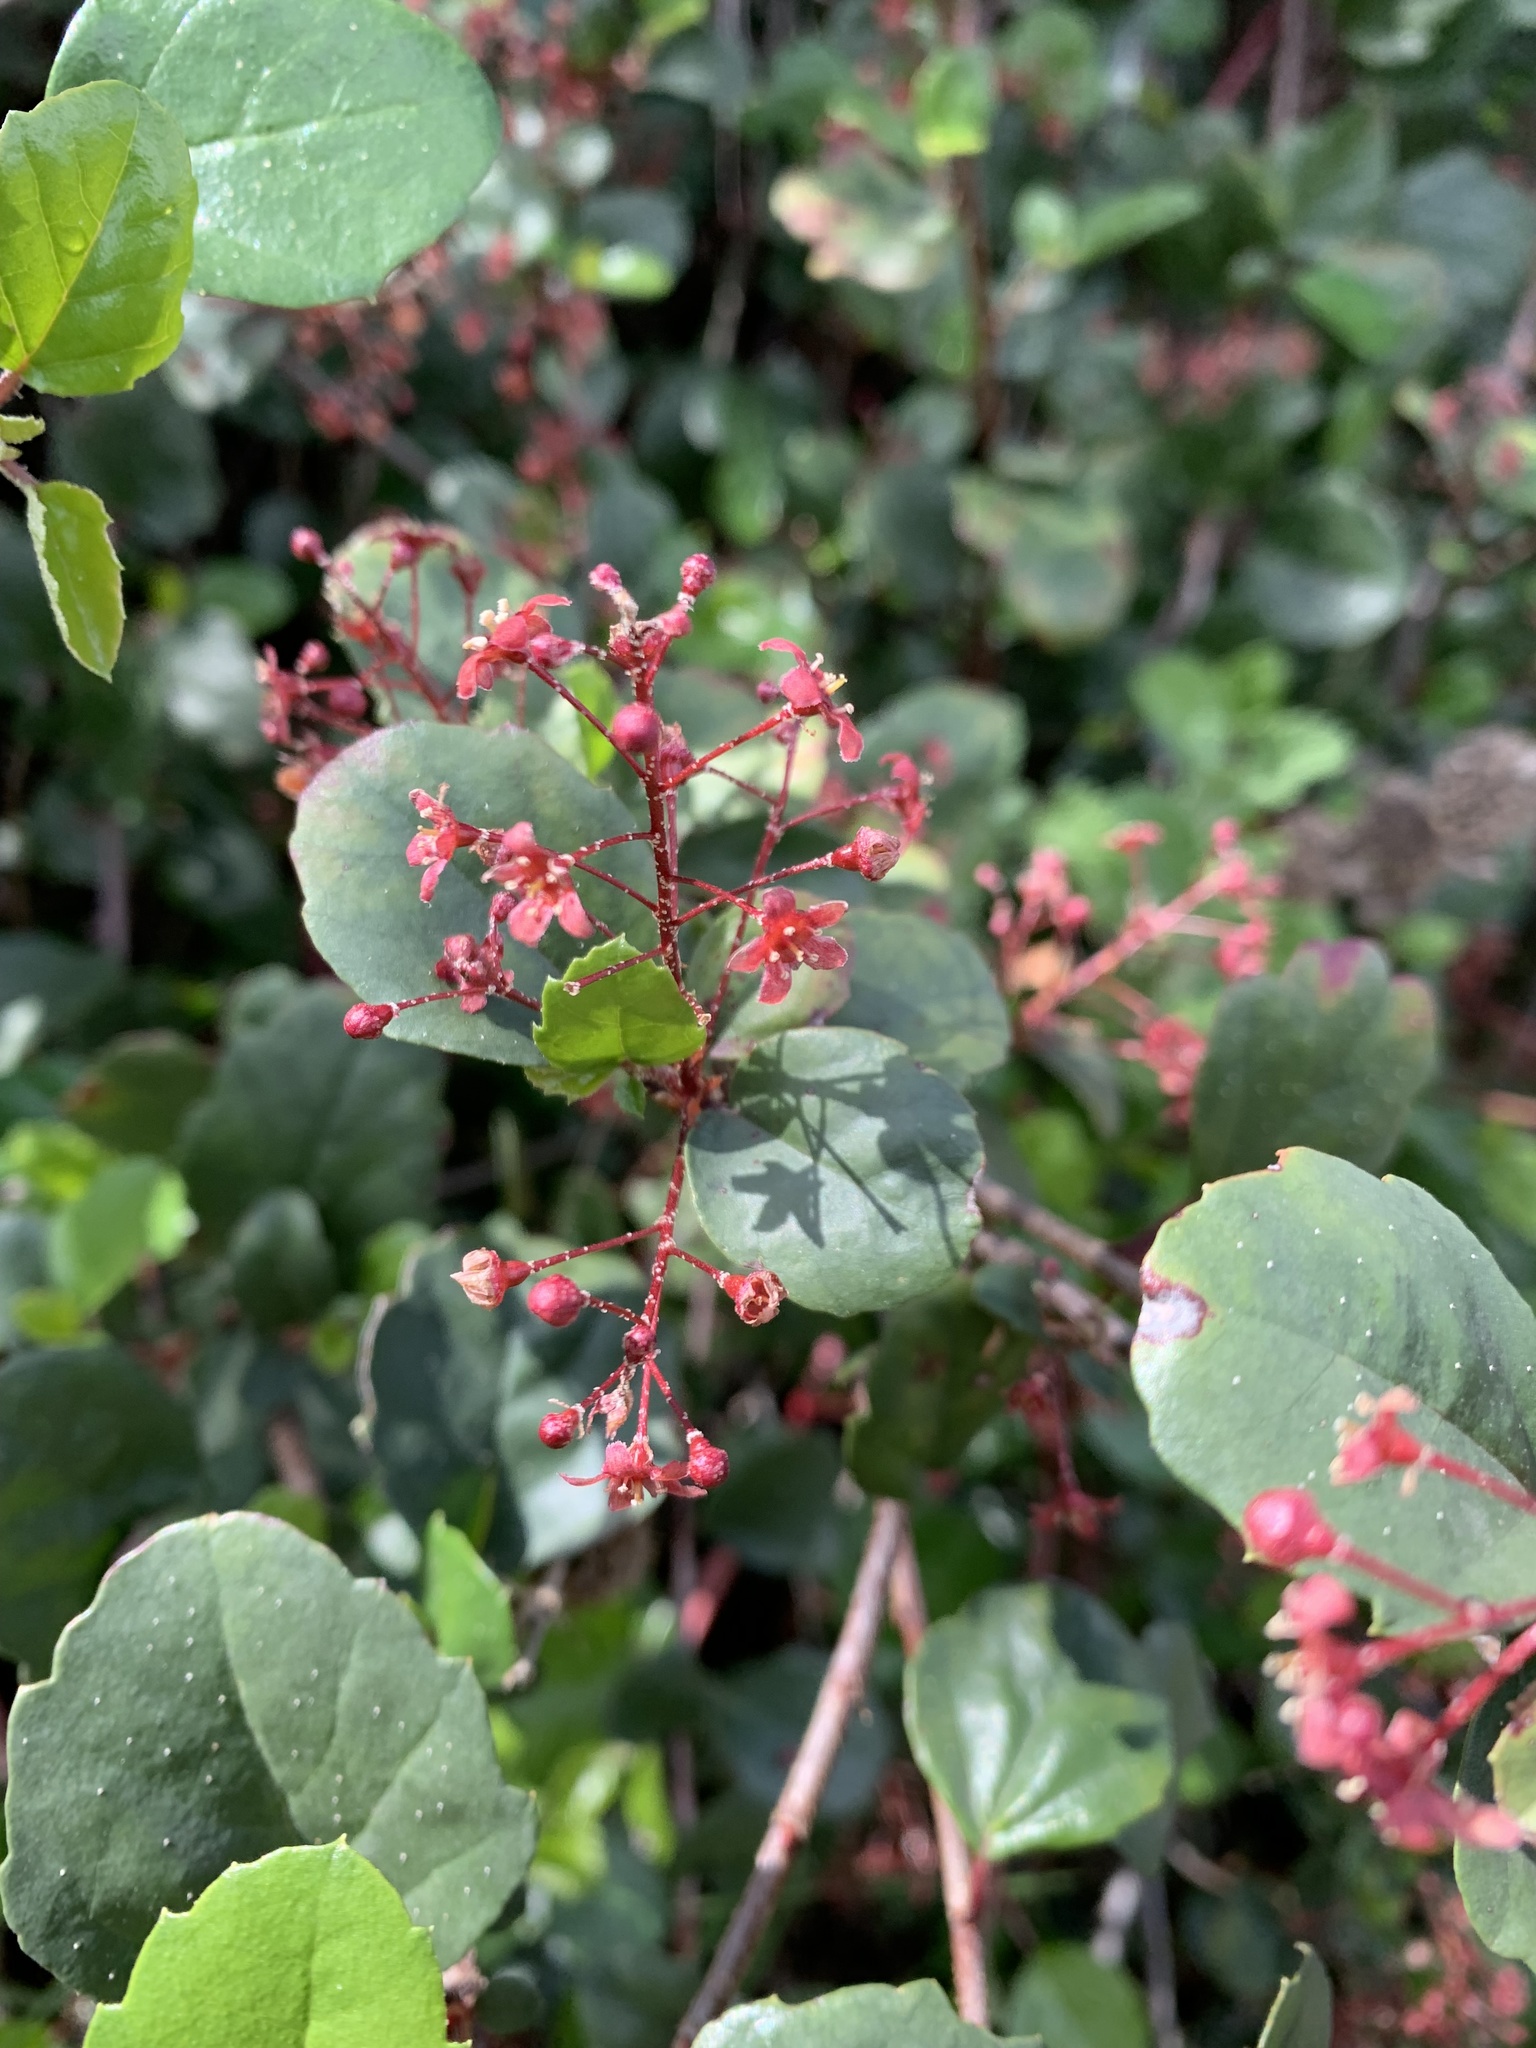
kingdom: Plantae
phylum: Tracheophyta
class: Magnoliopsida
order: Saxifragales
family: Grossulariaceae
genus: Ribes
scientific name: Ribes viburnifolium
